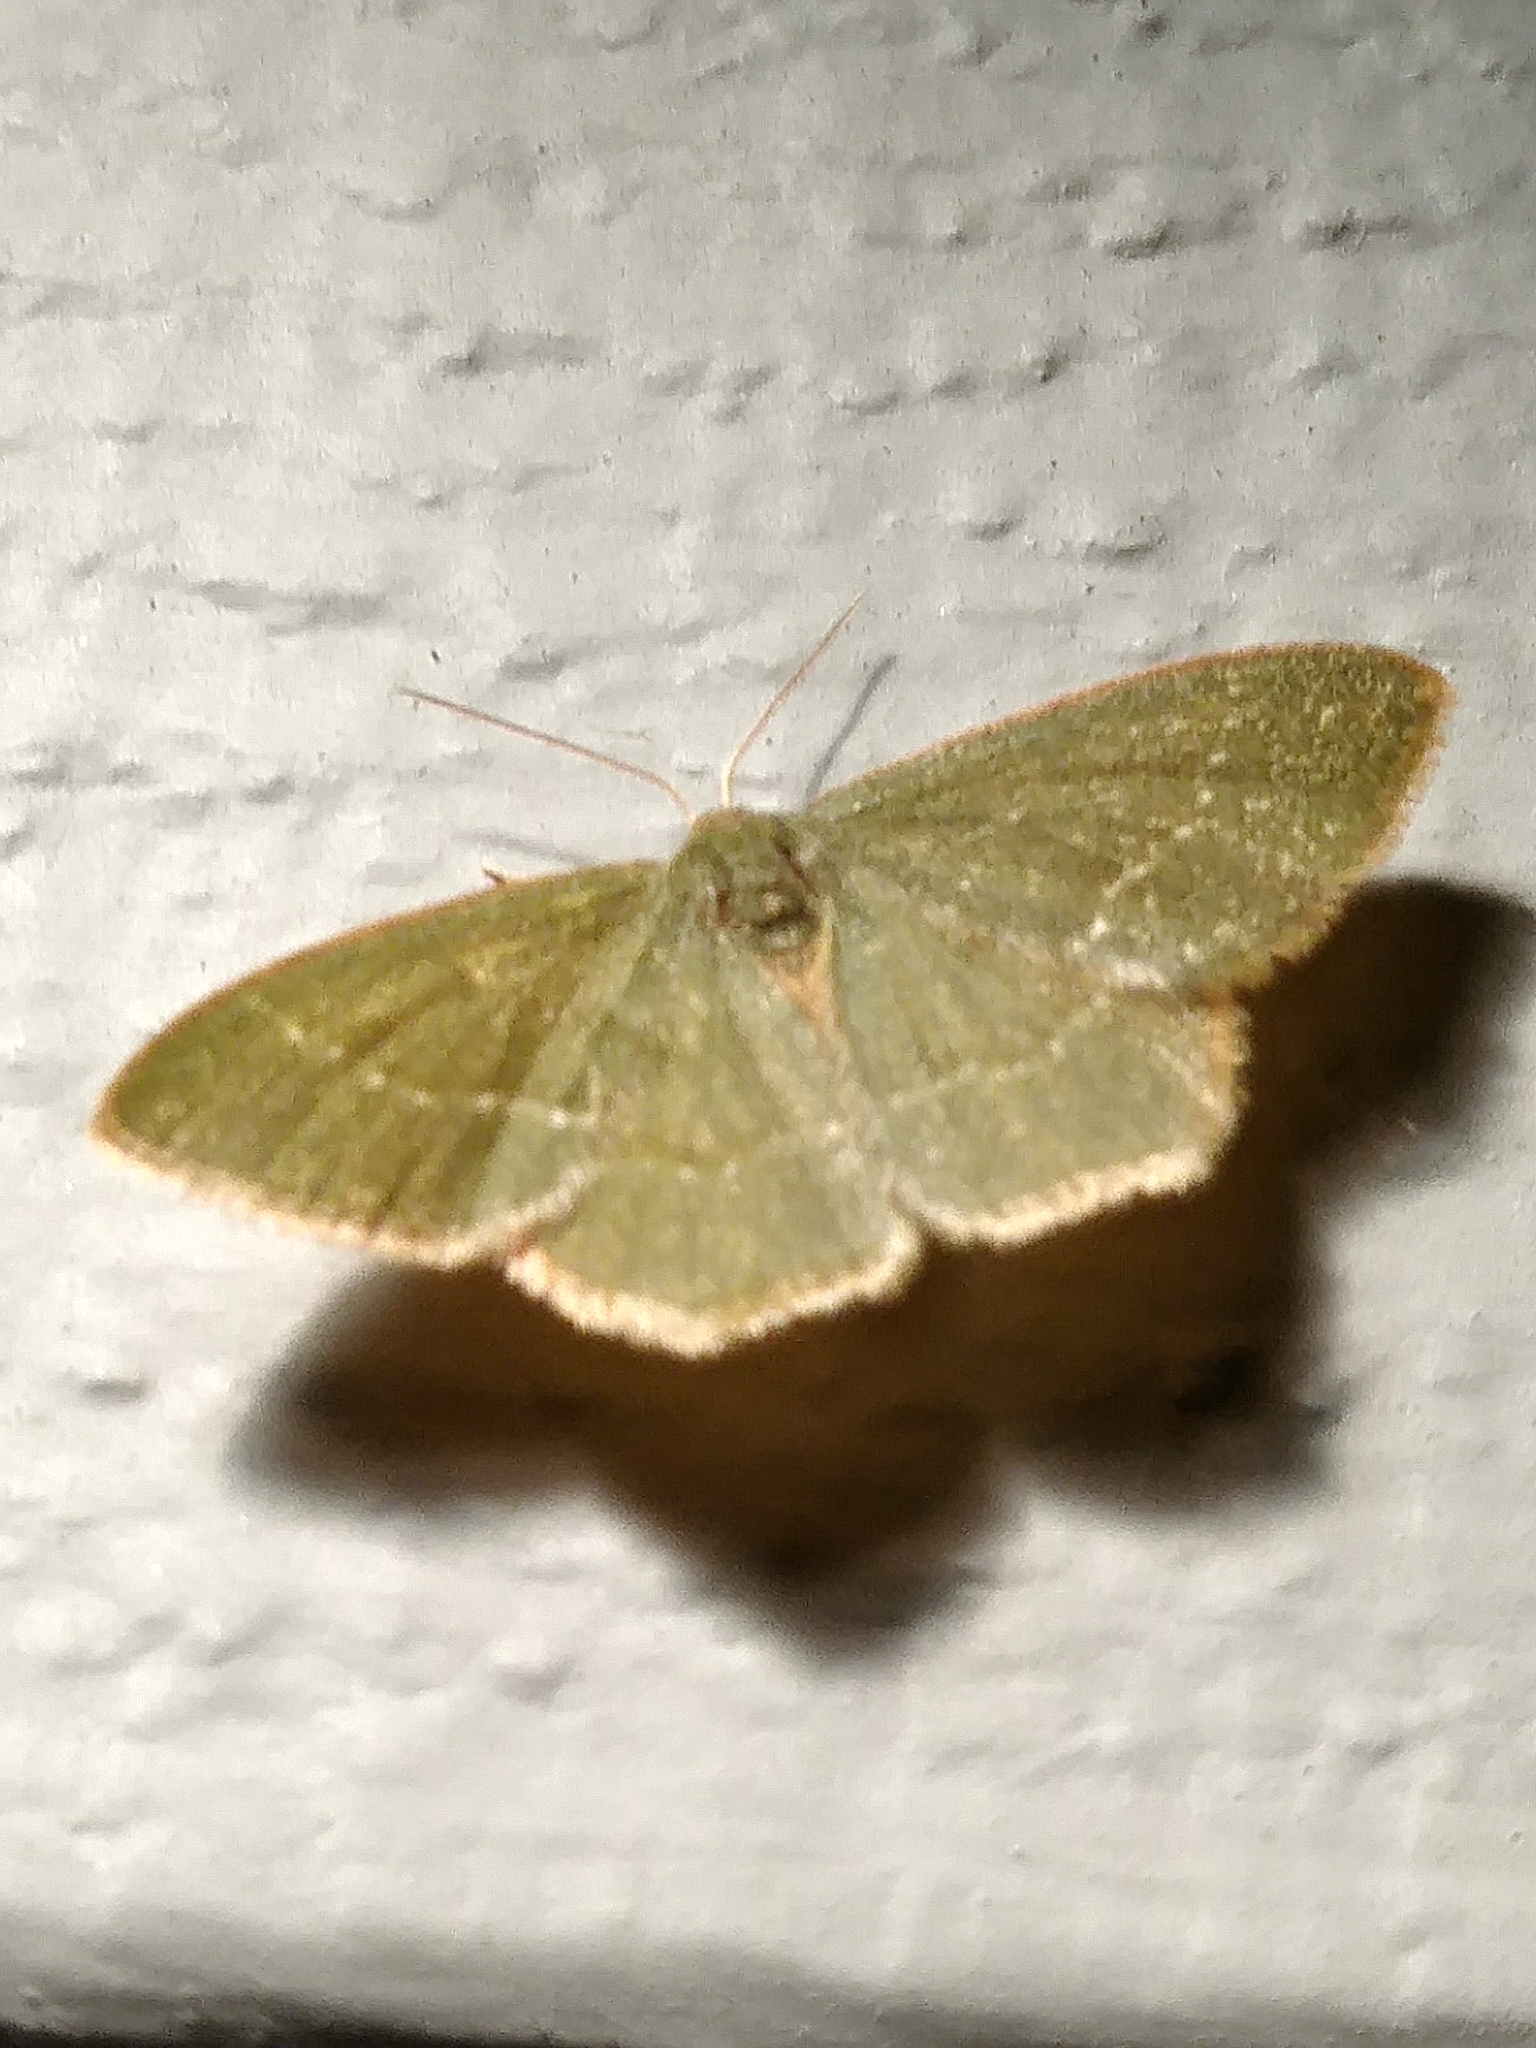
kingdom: Animalia
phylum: Arthropoda
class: Insecta
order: Lepidoptera
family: Geometridae
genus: Thalera
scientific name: Thalera pistasciaria
